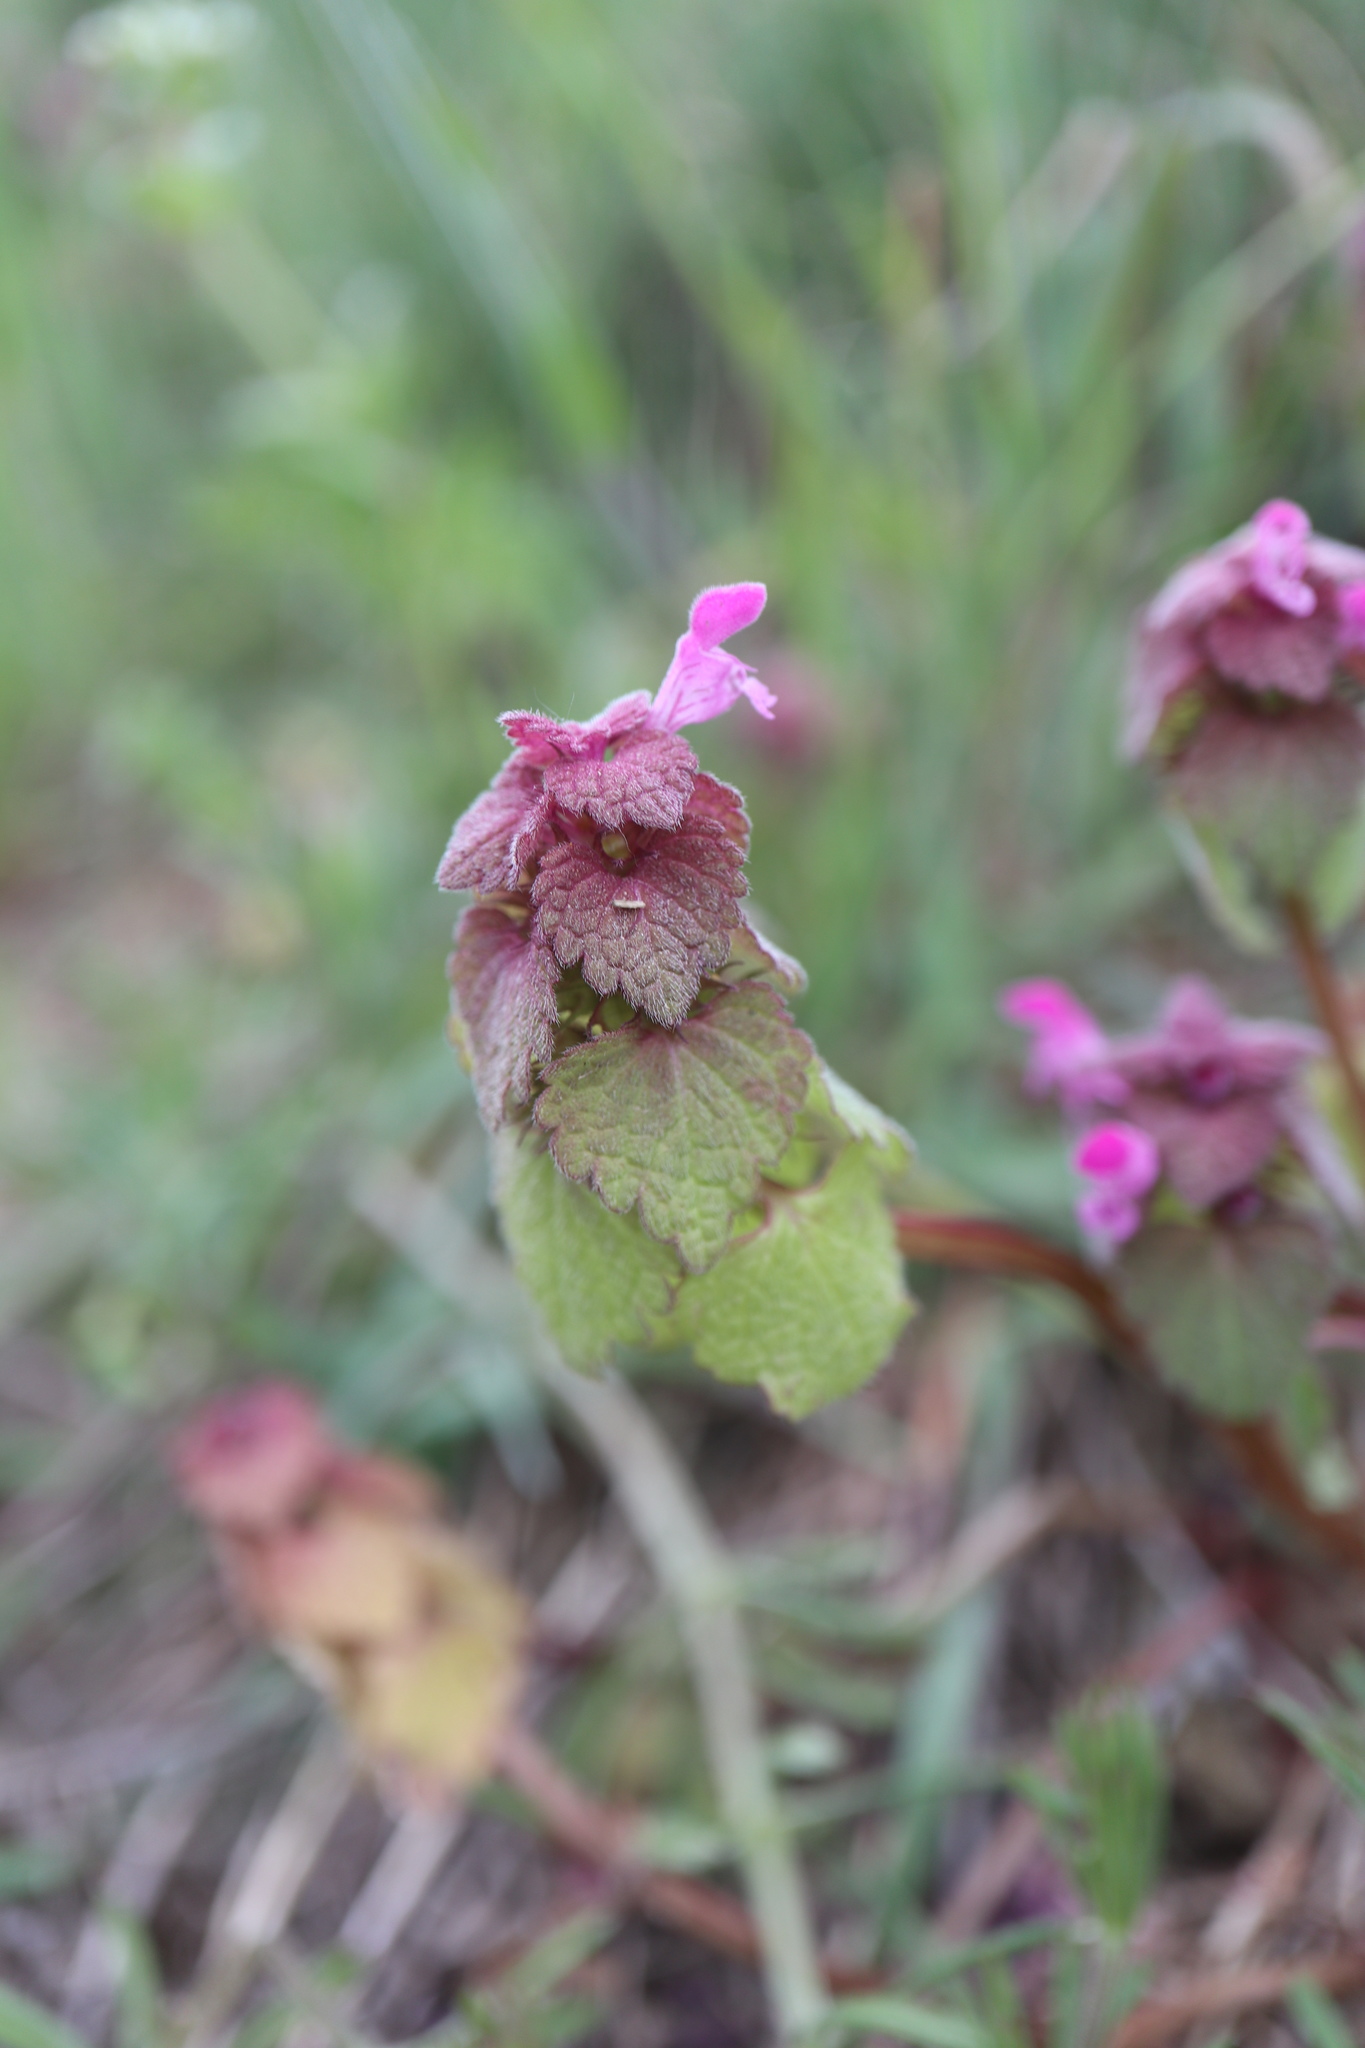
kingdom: Plantae
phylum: Tracheophyta
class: Magnoliopsida
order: Lamiales
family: Lamiaceae
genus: Lamium
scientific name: Lamium purpureum
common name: Red dead-nettle
